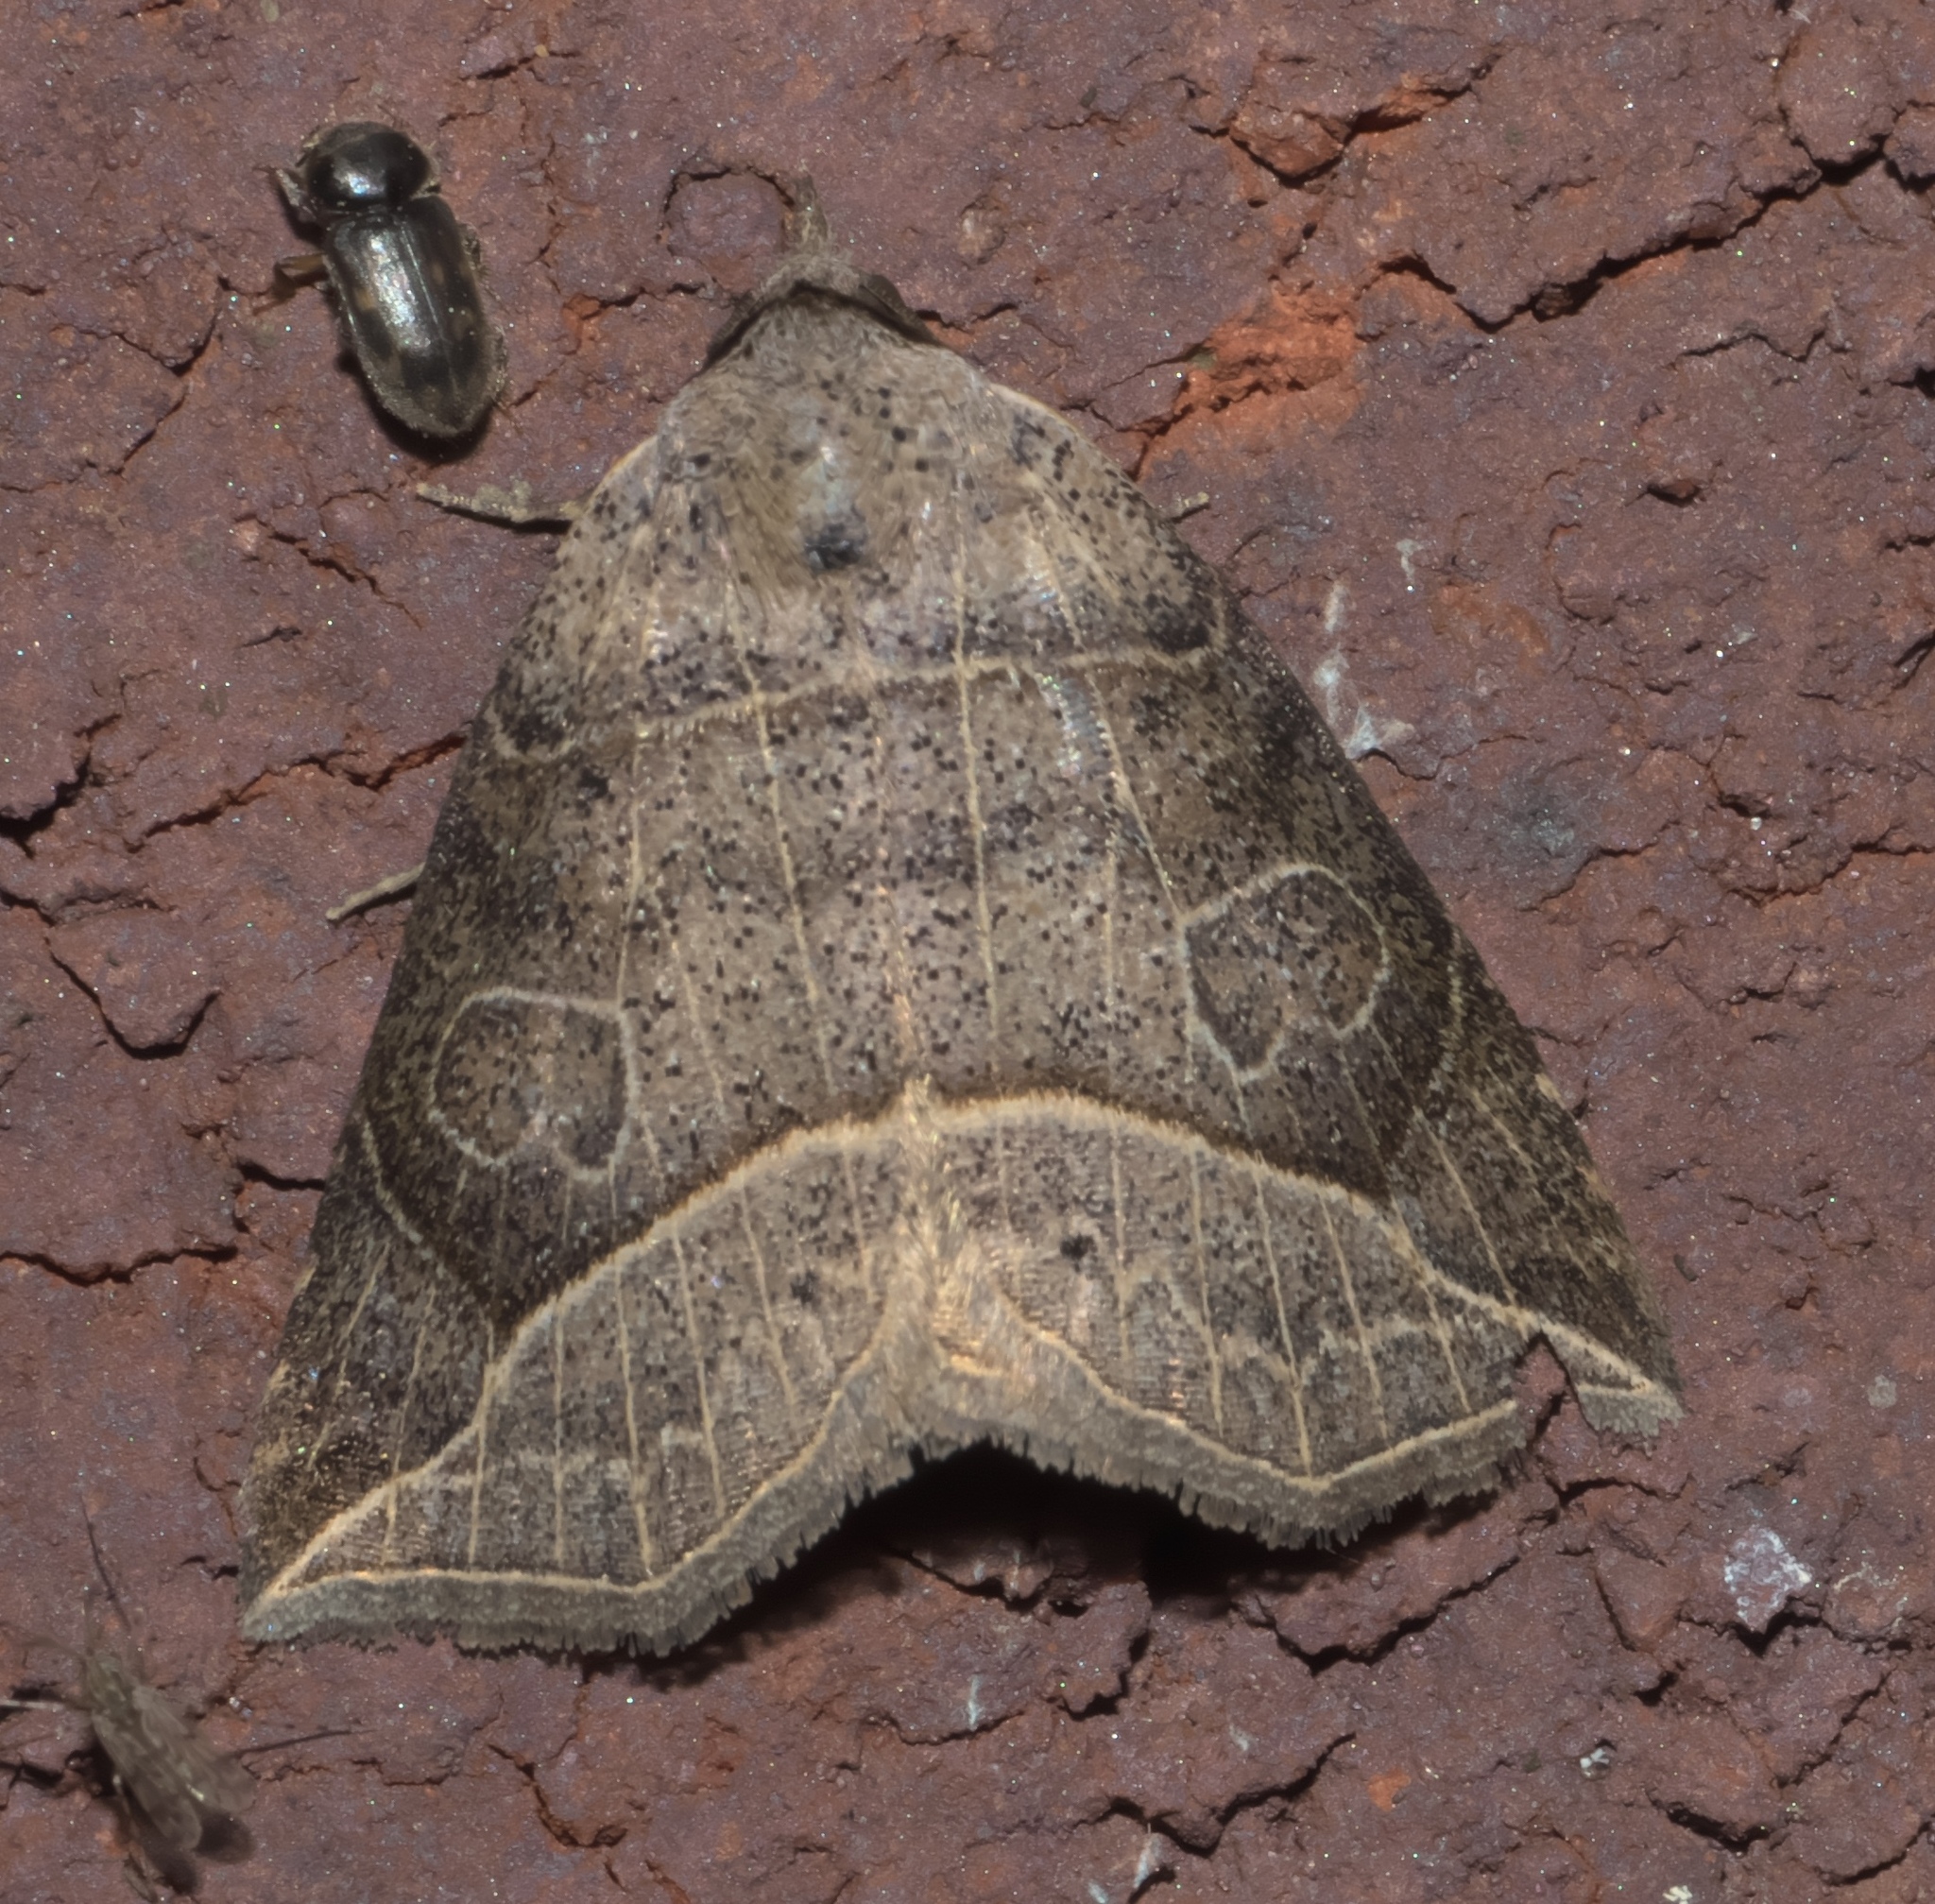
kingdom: Animalia
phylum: Arthropoda
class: Insecta
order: Lepidoptera
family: Erebidae
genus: Isogona
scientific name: Isogona tenuis
